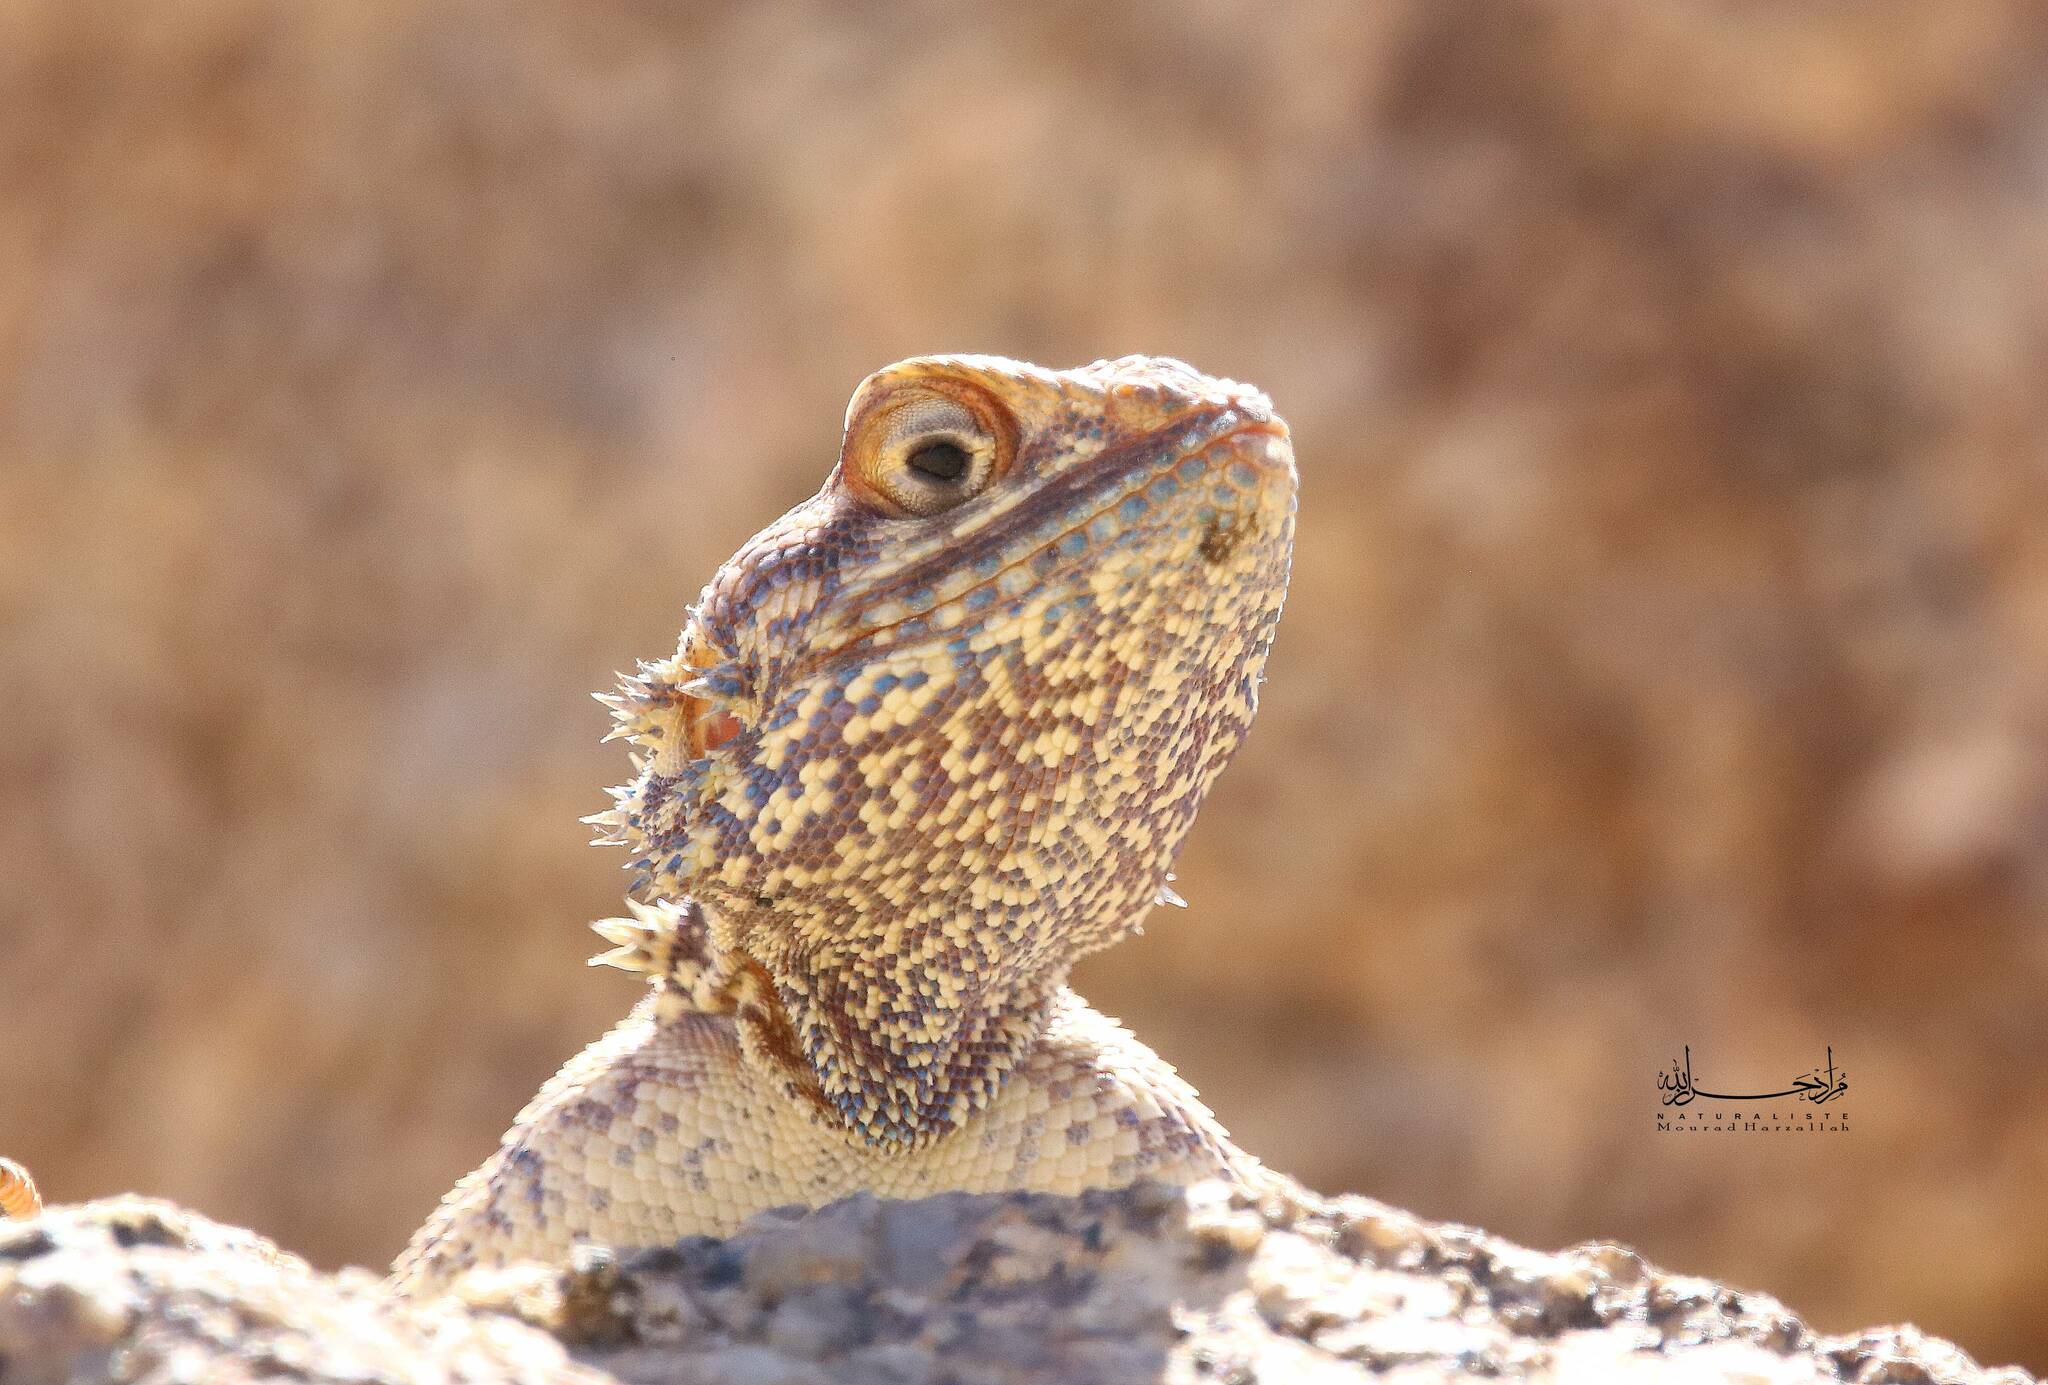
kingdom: Animalia
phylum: Chordata
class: Squamata
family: Agamidae
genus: Agama
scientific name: Agama tassiliensis
